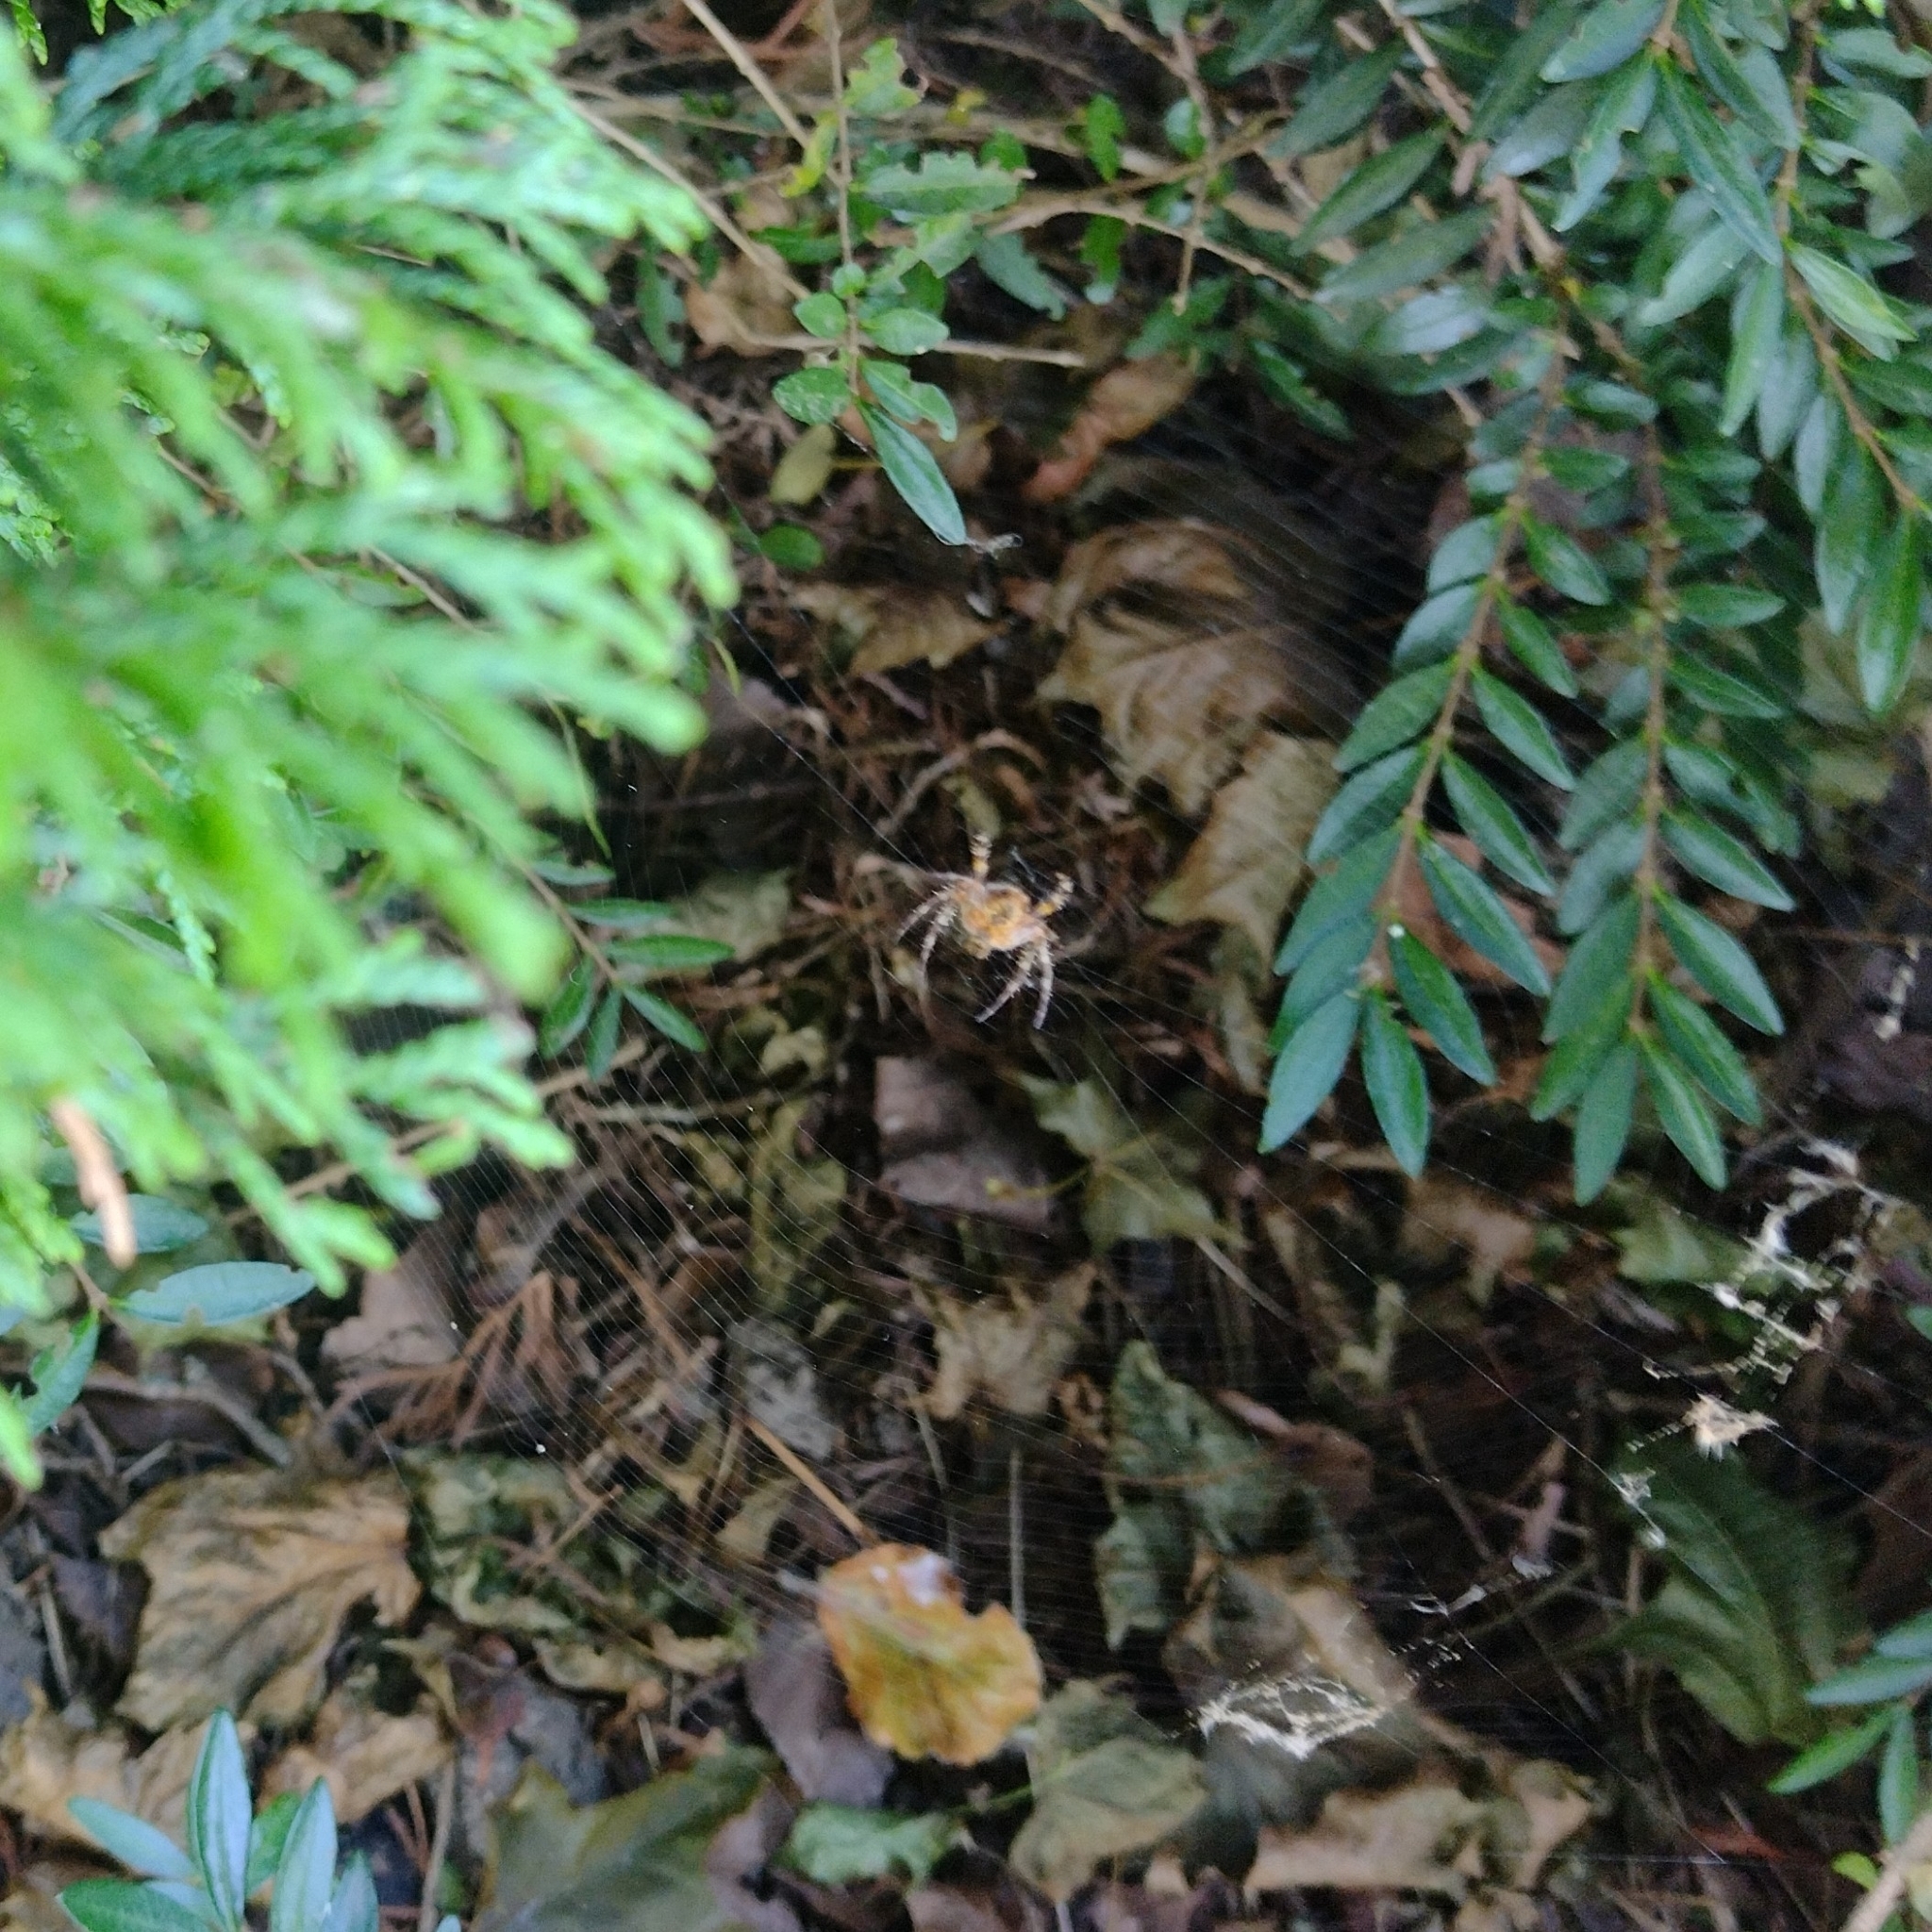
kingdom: Animalia
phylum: Arthropoda
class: Arachnida
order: Araneae
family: Araneidae
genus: Araneus
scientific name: Araneus diadematus
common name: Cross orbweaver
